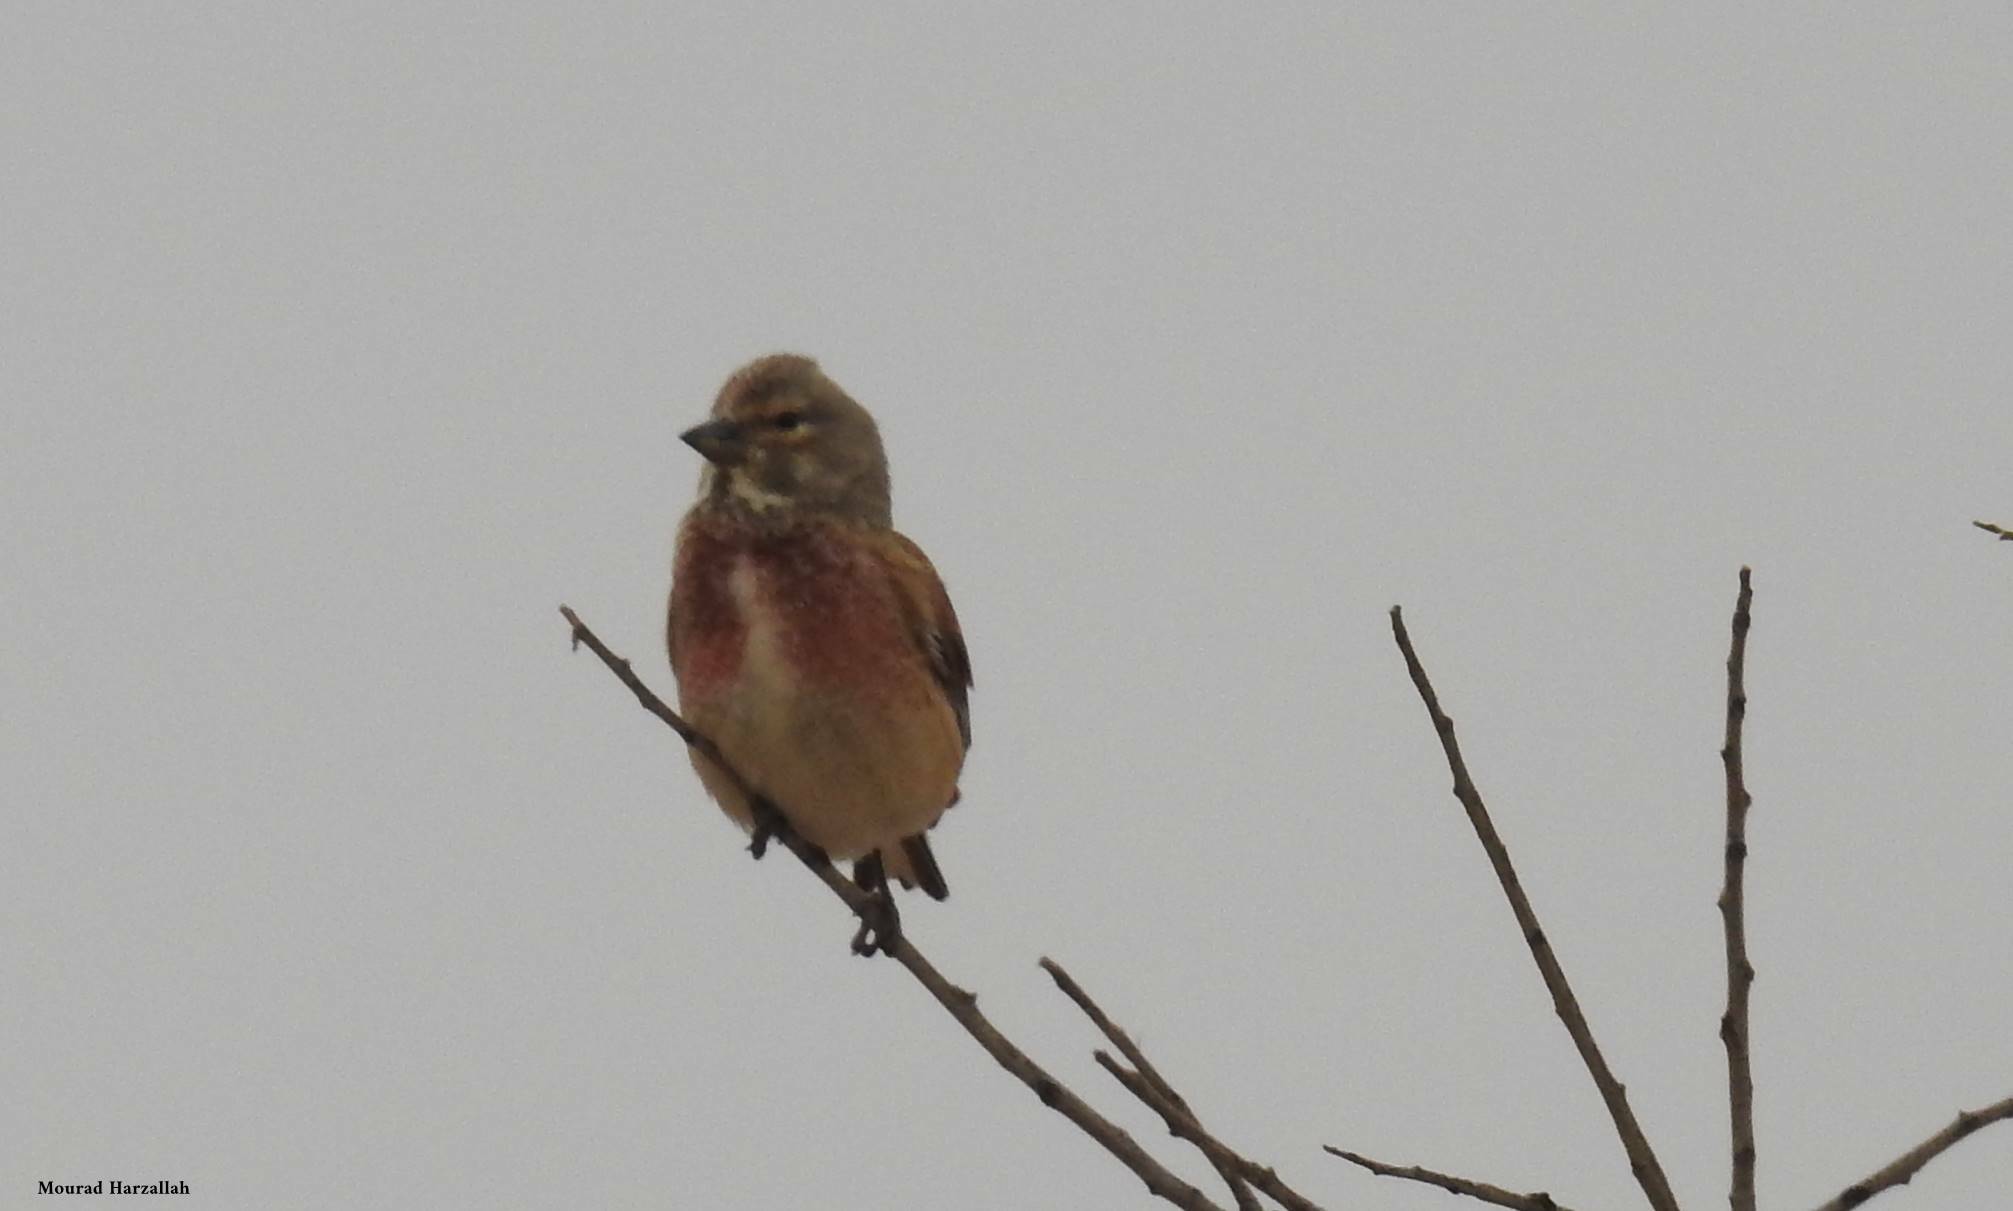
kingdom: Animalia
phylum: Chordata
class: Aves
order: Passeriformes
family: Fringillidae
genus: Linaria
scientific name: Linaria cannabina
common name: Common linnet
